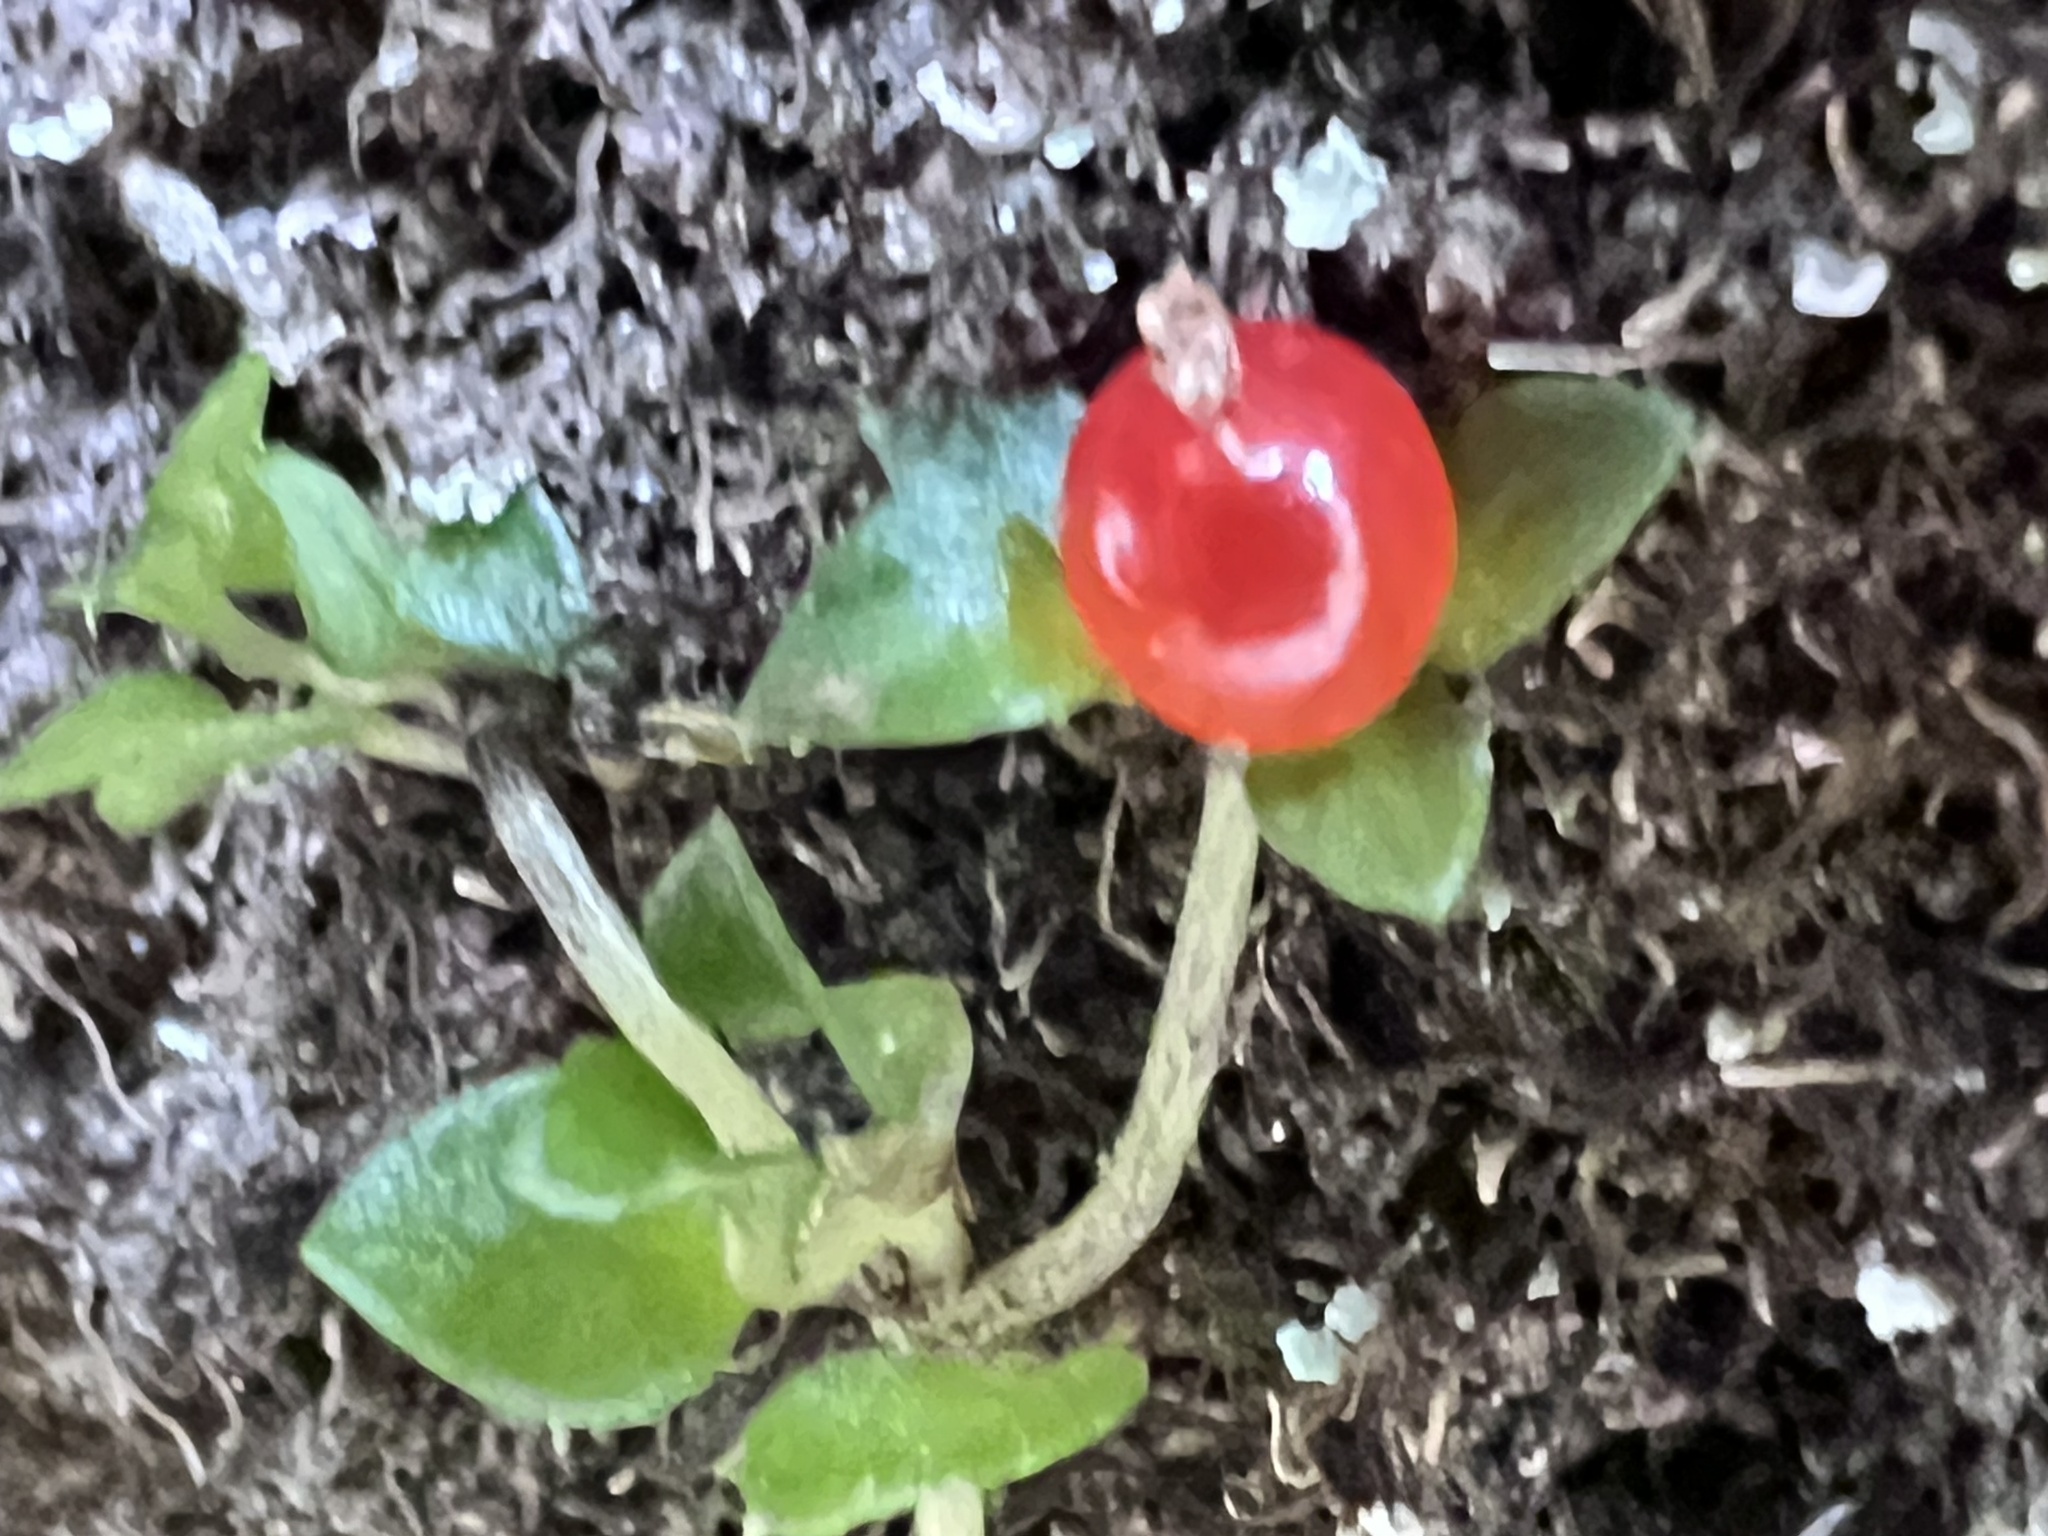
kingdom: Plantae
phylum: Tracheophyta
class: Magnoliopsida
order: Gentianales
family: Rubiaceae
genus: Nertera
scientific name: Nertera granadensis
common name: Beadplant
